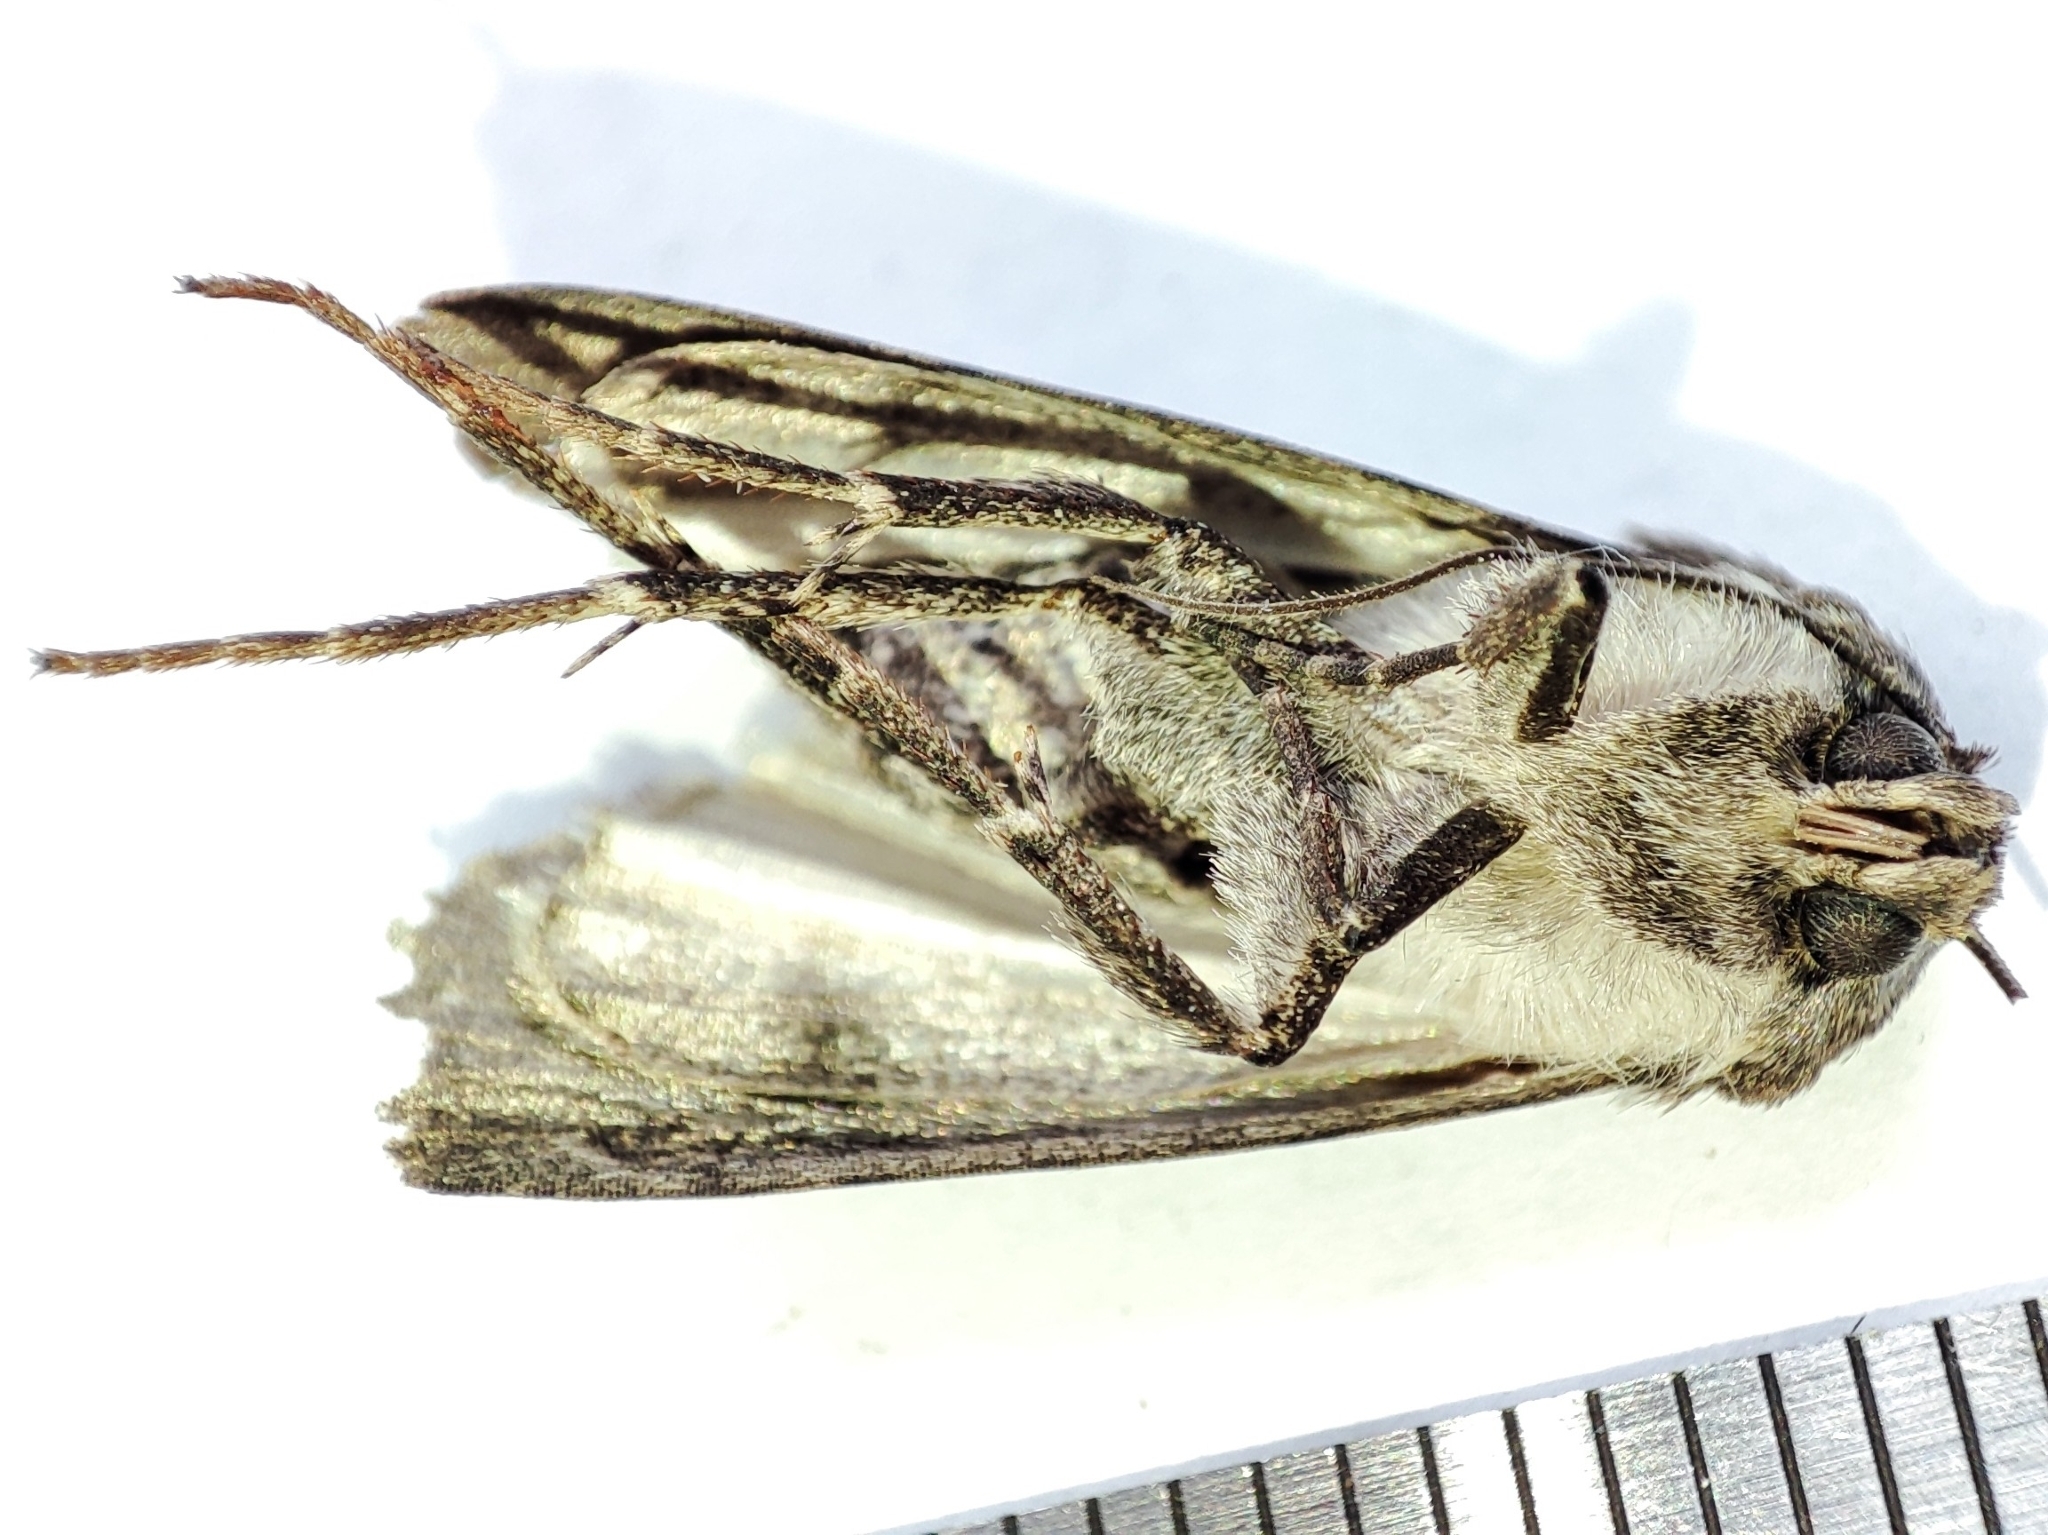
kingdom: Animalia
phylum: Arthropoda
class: Insecta
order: Lepidoptera
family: Noctuidae
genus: Agrotis
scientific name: Agrotis segetum
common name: Turnip moth
